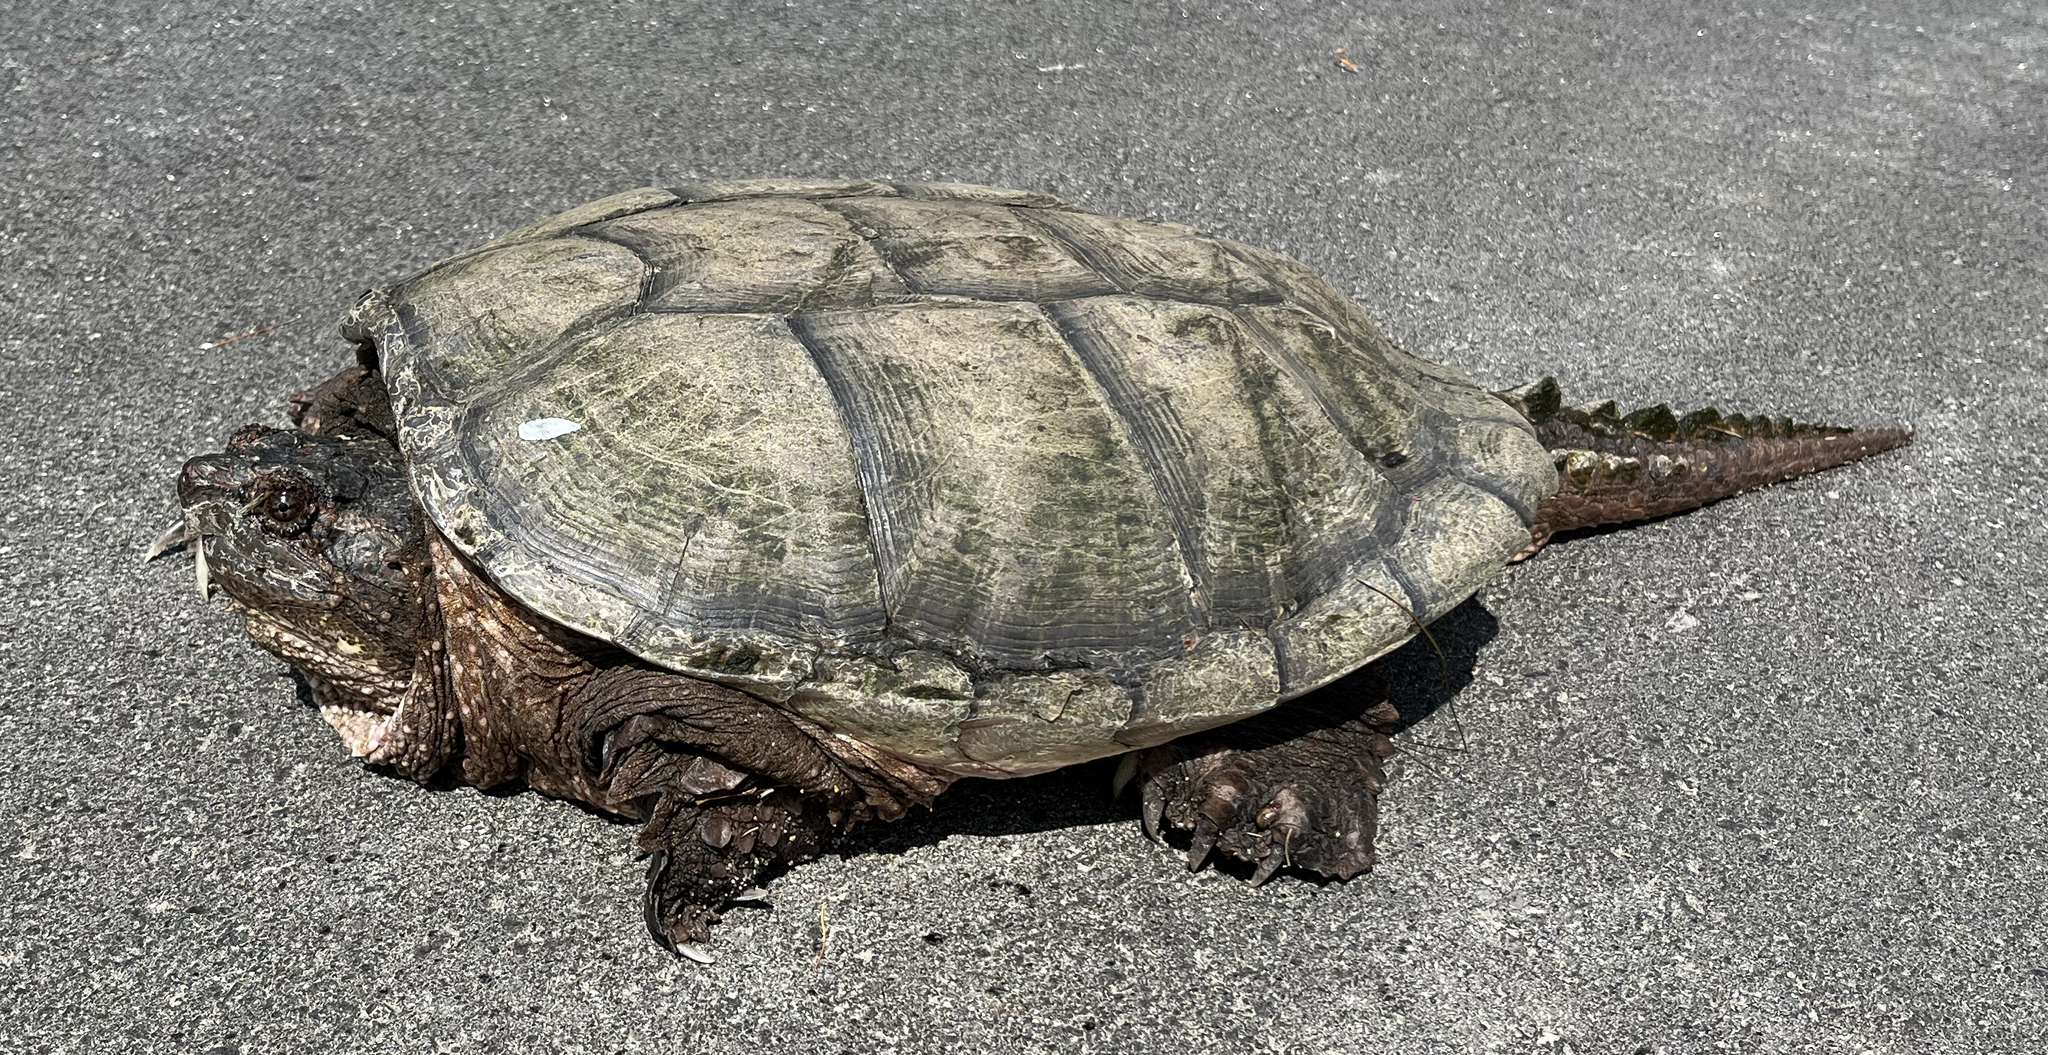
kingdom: Animalia
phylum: Chordata
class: Testudines
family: Chelydridae
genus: Chelydra
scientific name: Chelydra serpentina
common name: Common snapping turtle
